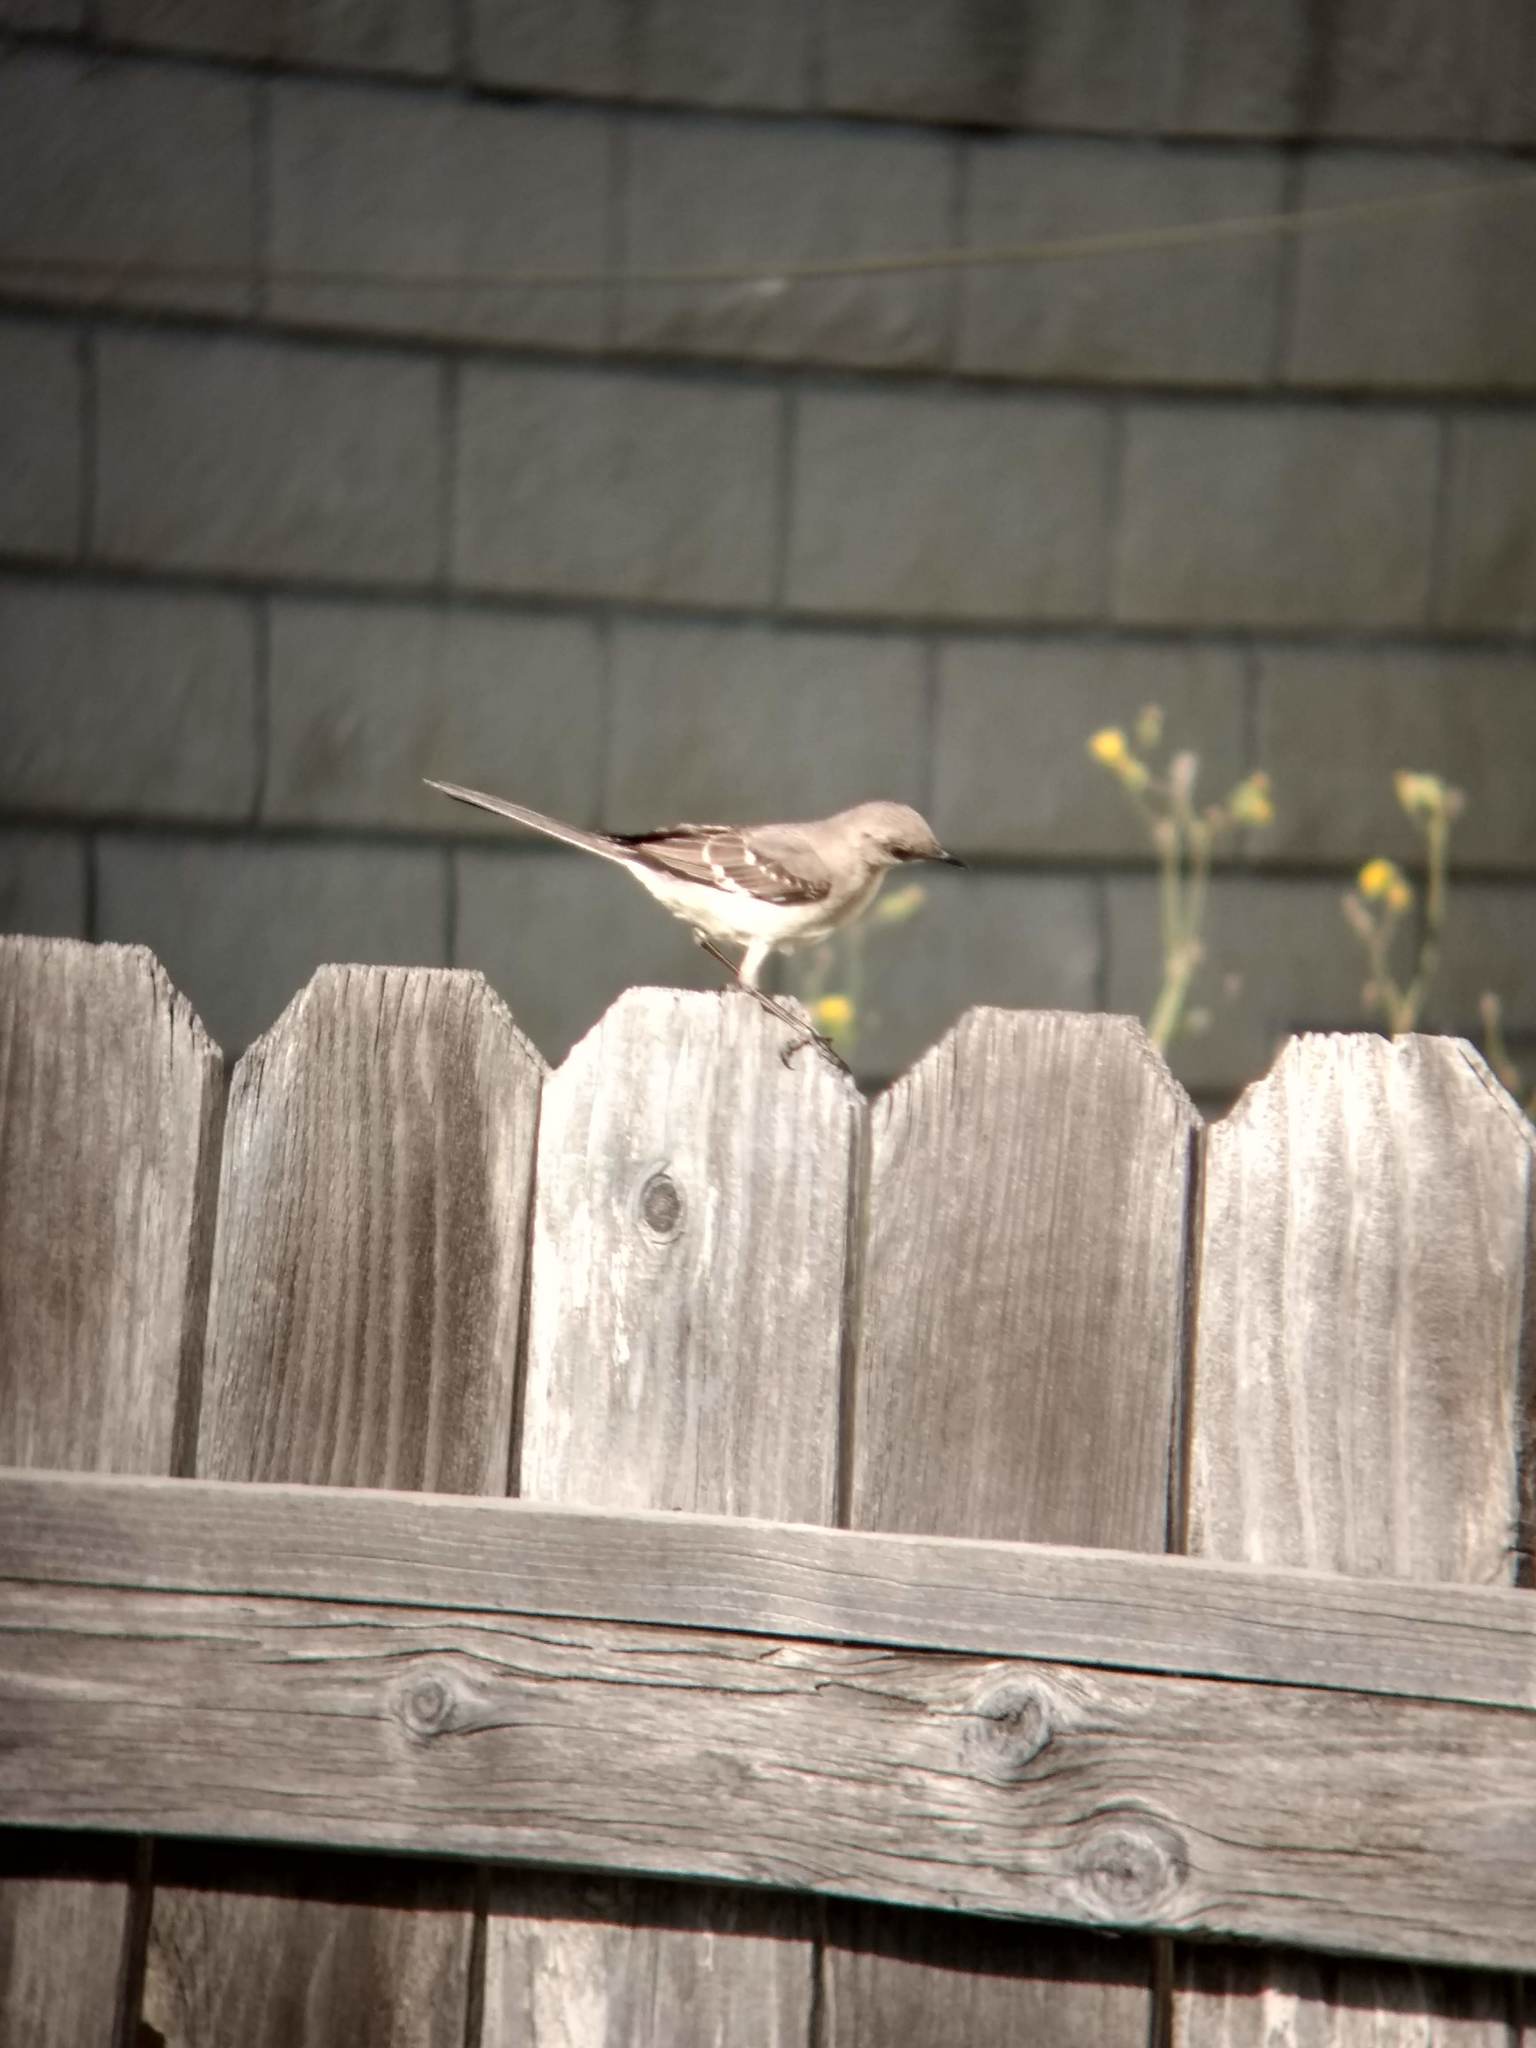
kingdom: Animalia
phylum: Chordata
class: Aves
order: Passeriformes
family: Mimidae
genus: Mimus
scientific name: Mimus polyglottos
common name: Northern mockingbird
